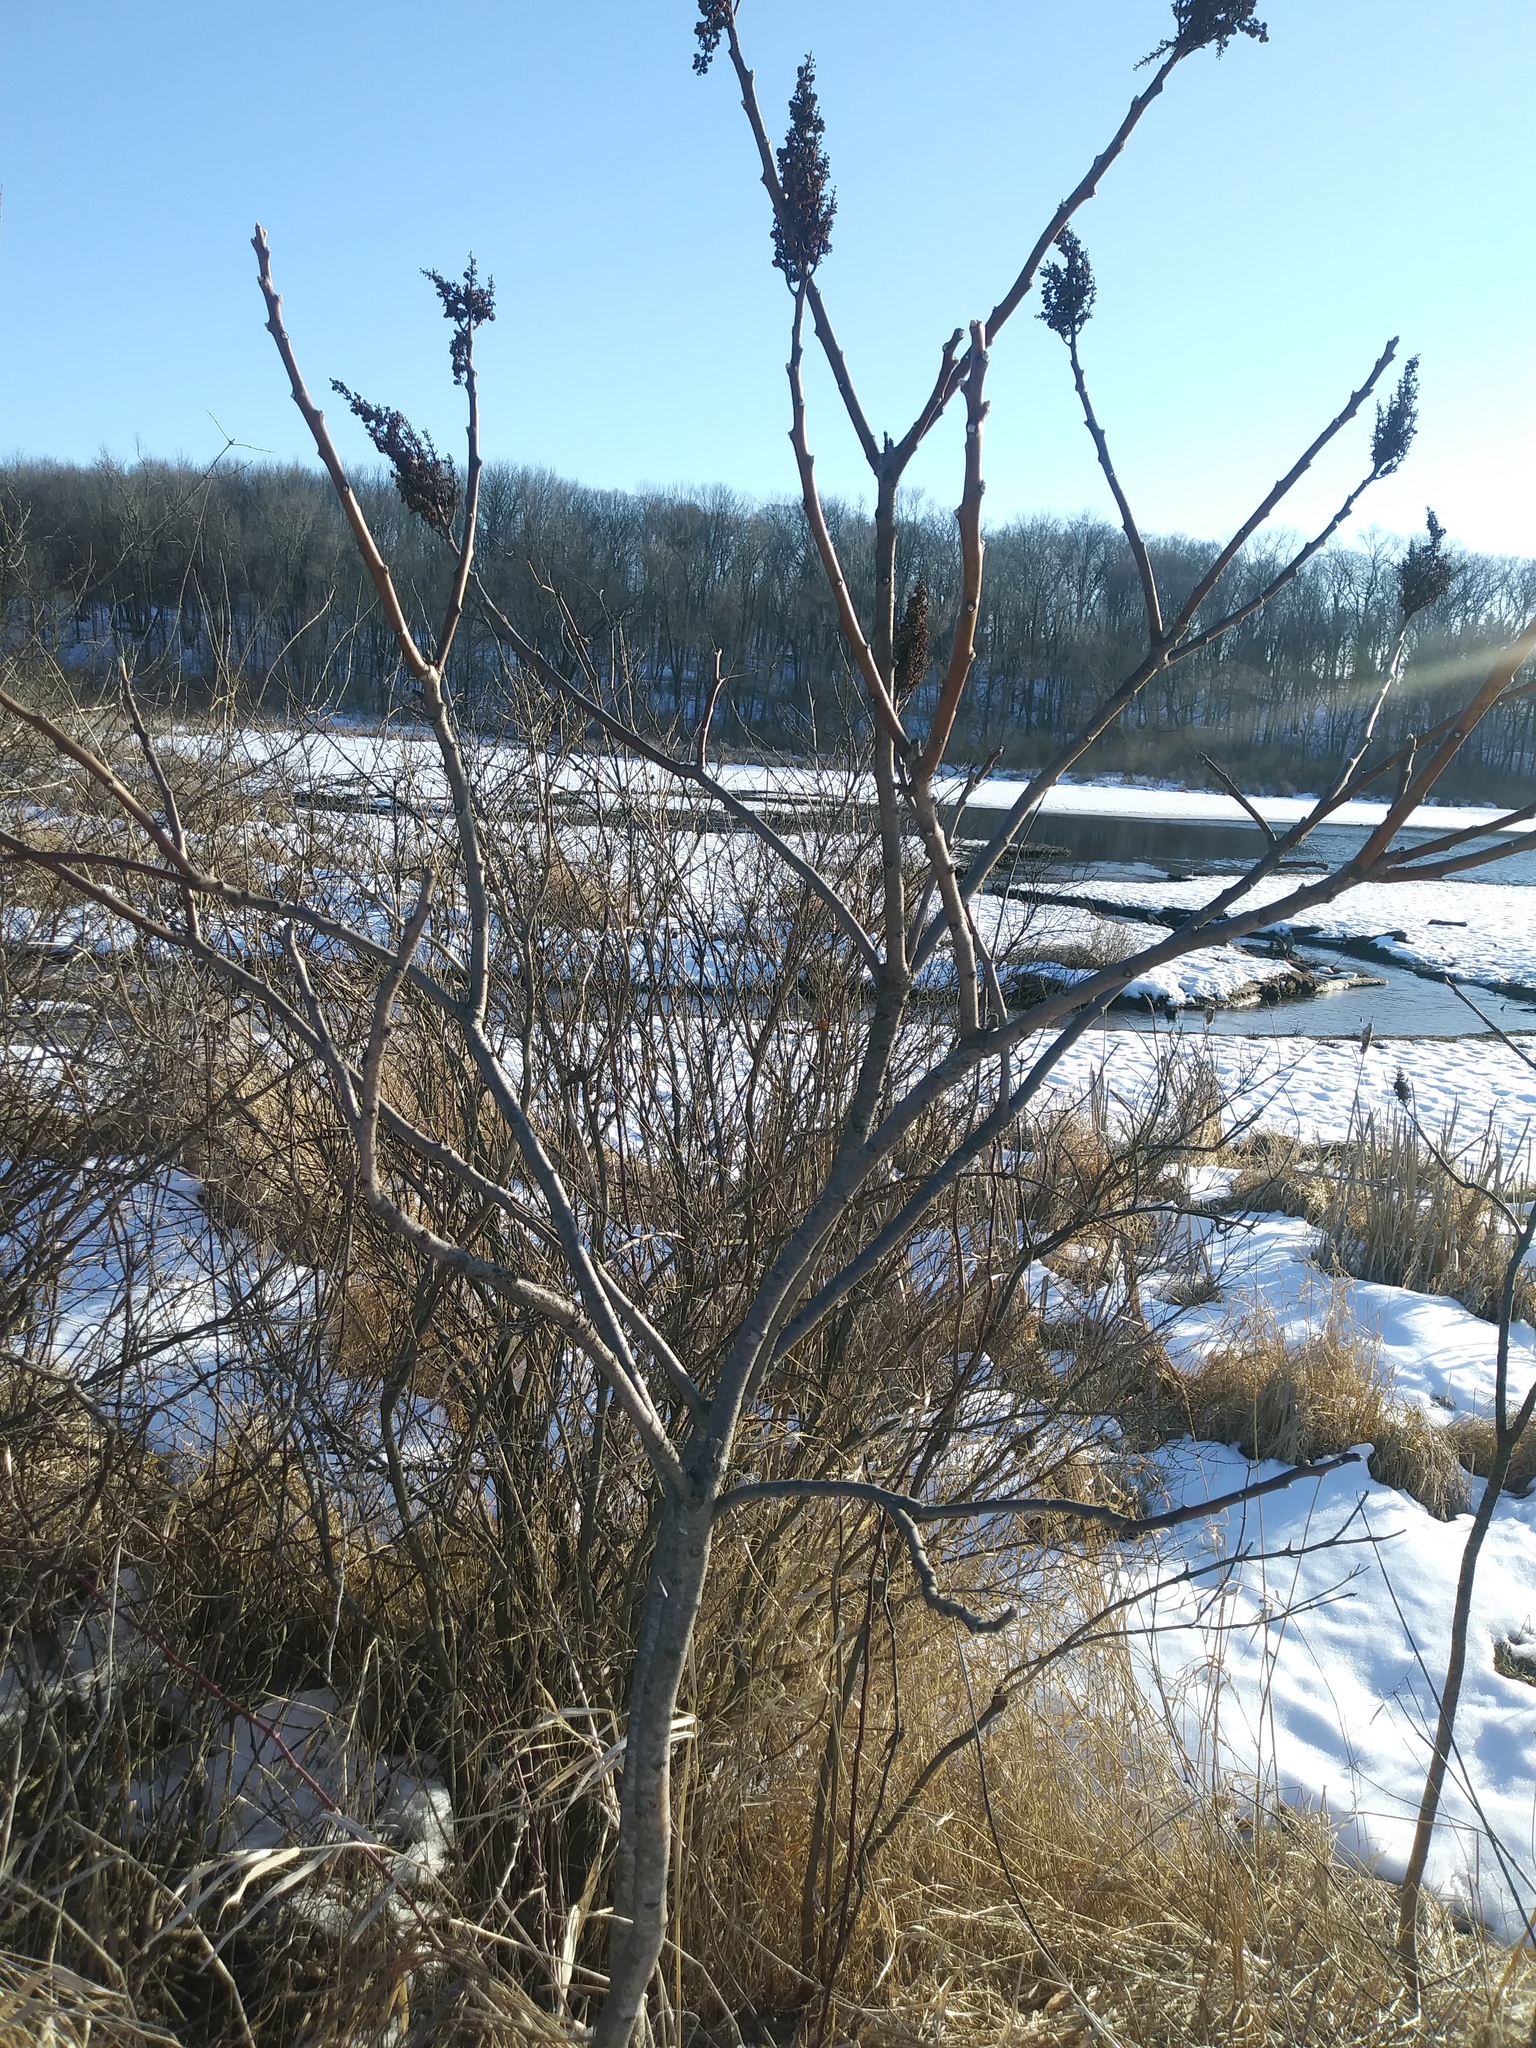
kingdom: Plantae
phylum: Tracheophyta
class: Magnoliopsida
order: Sapindales
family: Anacardiaceae
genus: Rhus
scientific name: Rhus glabra
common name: Scarlet sumac
